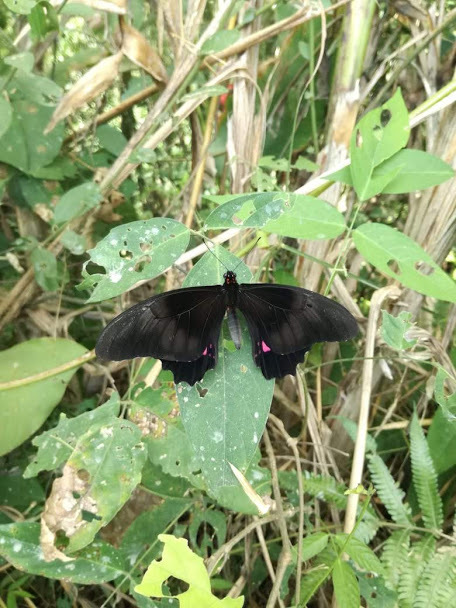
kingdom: Animalia
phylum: Arthropoda
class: Insecta
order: Lepidoptera
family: Papilionidae
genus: Papilio
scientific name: Papilio anchisiades
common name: Idaes swallowtail
